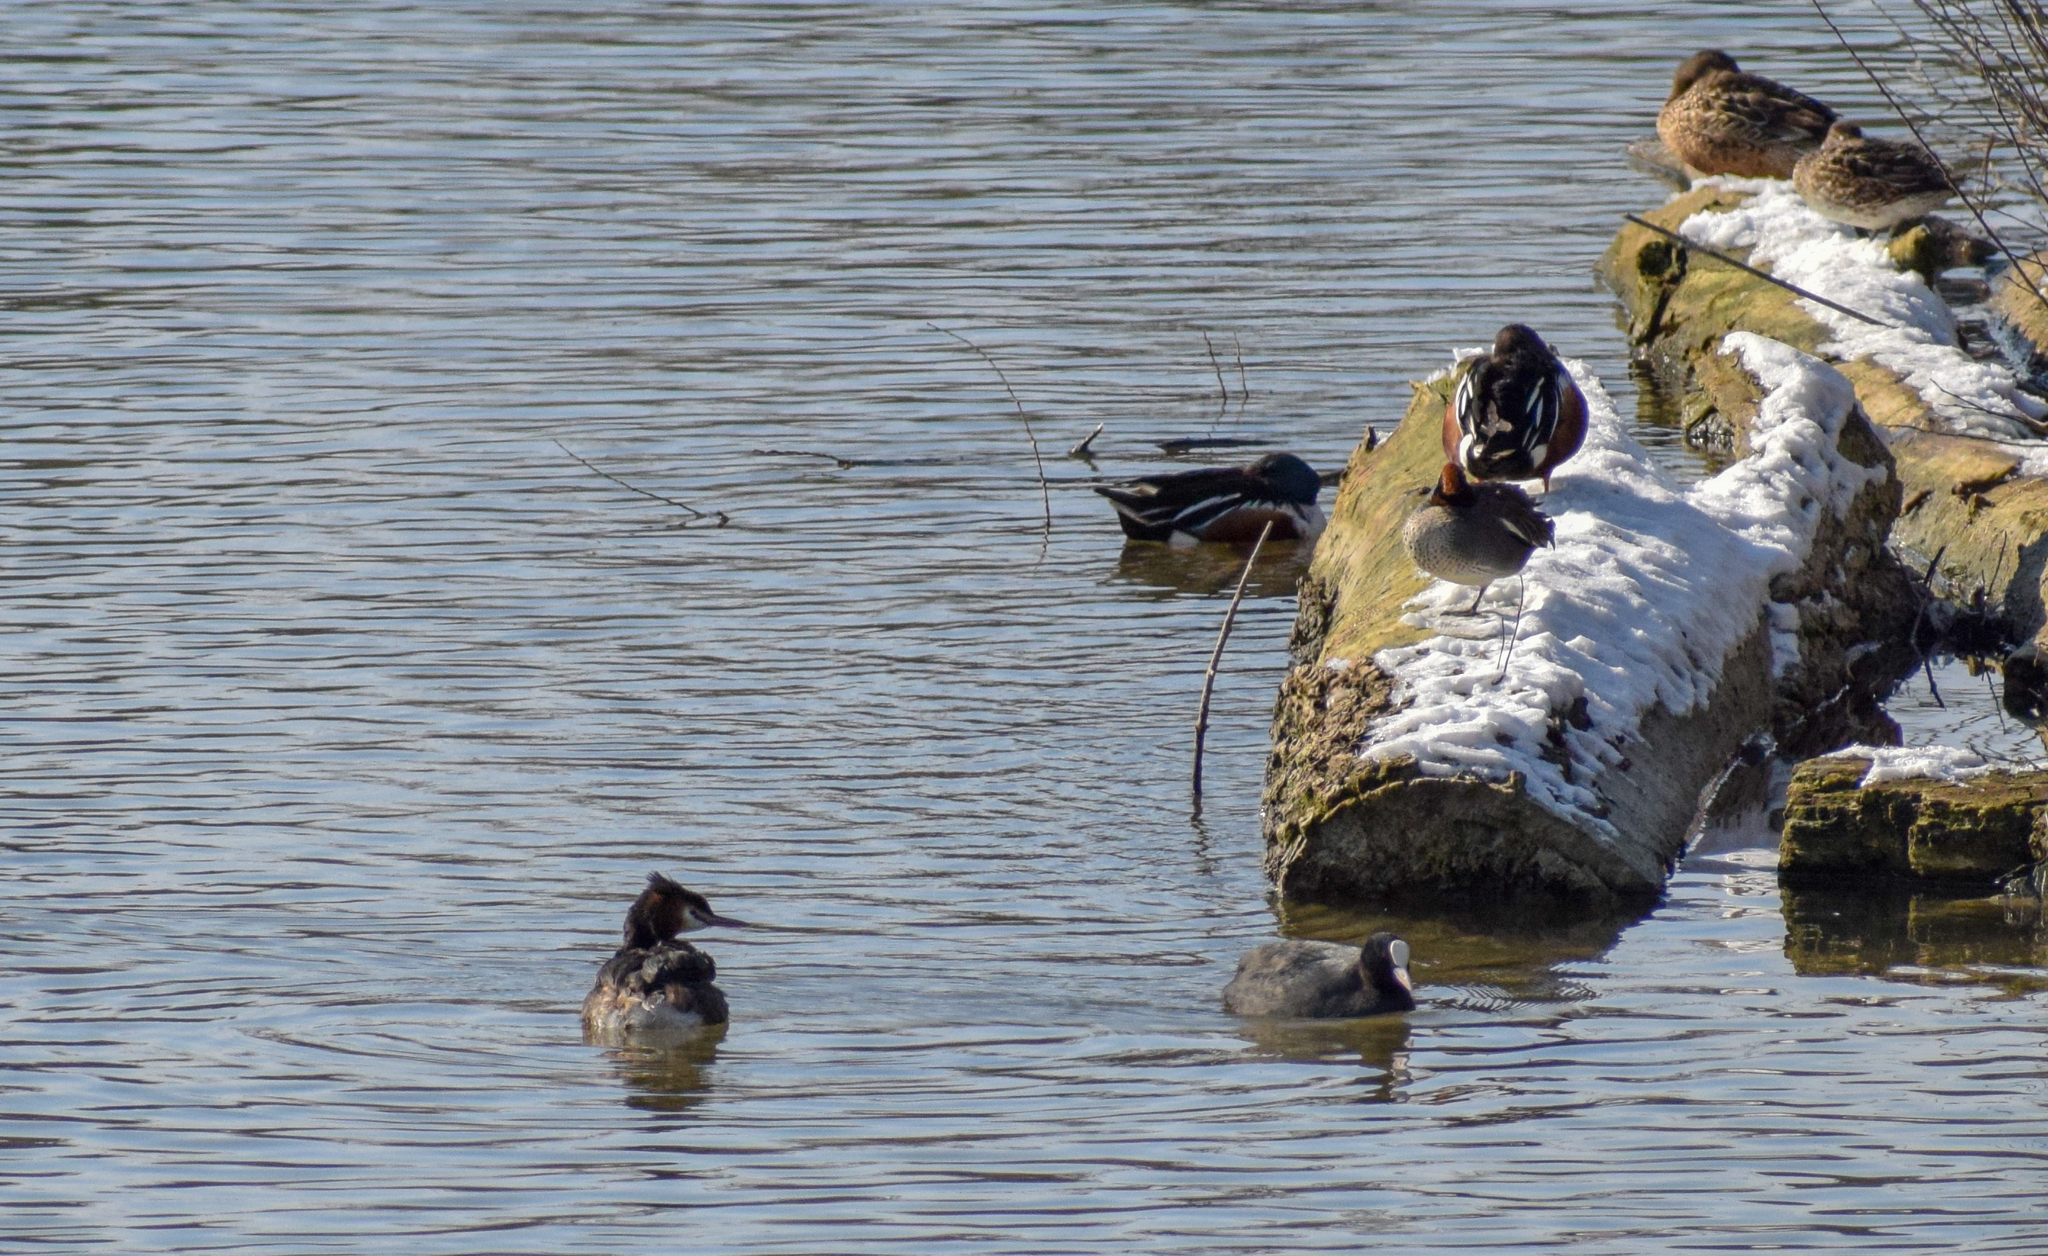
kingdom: Animalia
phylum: Chordata
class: Aves
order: Podicipediformes
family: Podicipedidae
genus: Podiceps
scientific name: Podiceps cristatus
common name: Great crested grebe
